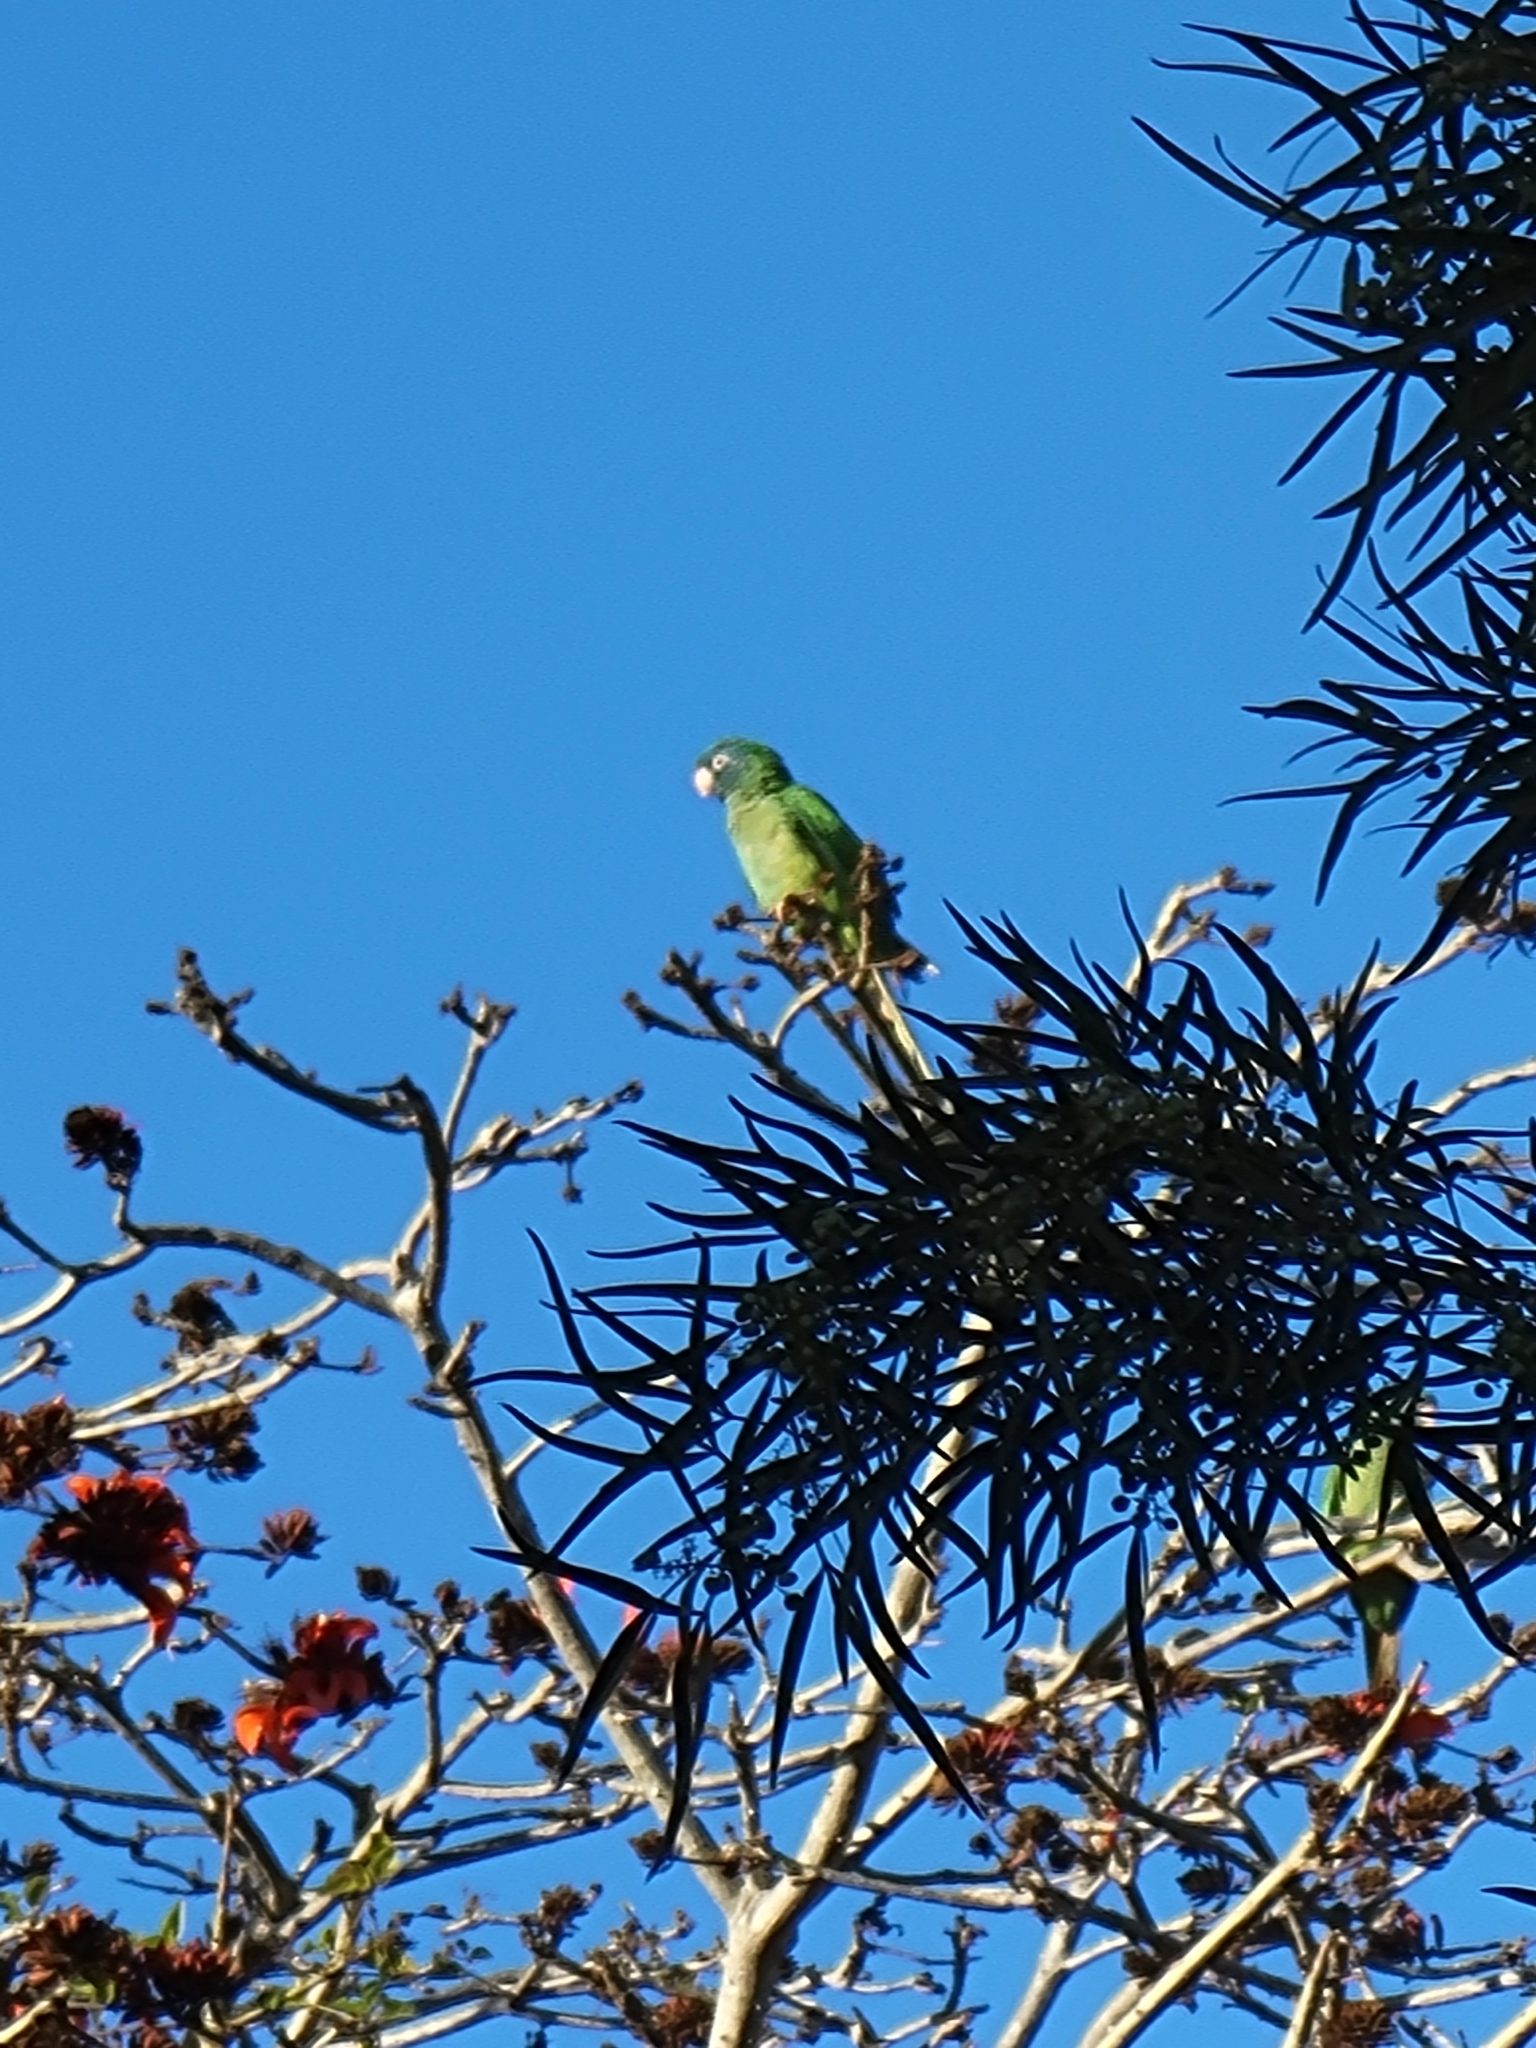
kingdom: Animalia
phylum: Chordata
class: Aves
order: Psittaciformes
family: Psittacidae
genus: Aratinga
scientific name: Aratinga acuticaudata
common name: Blue-crowned parakeet
